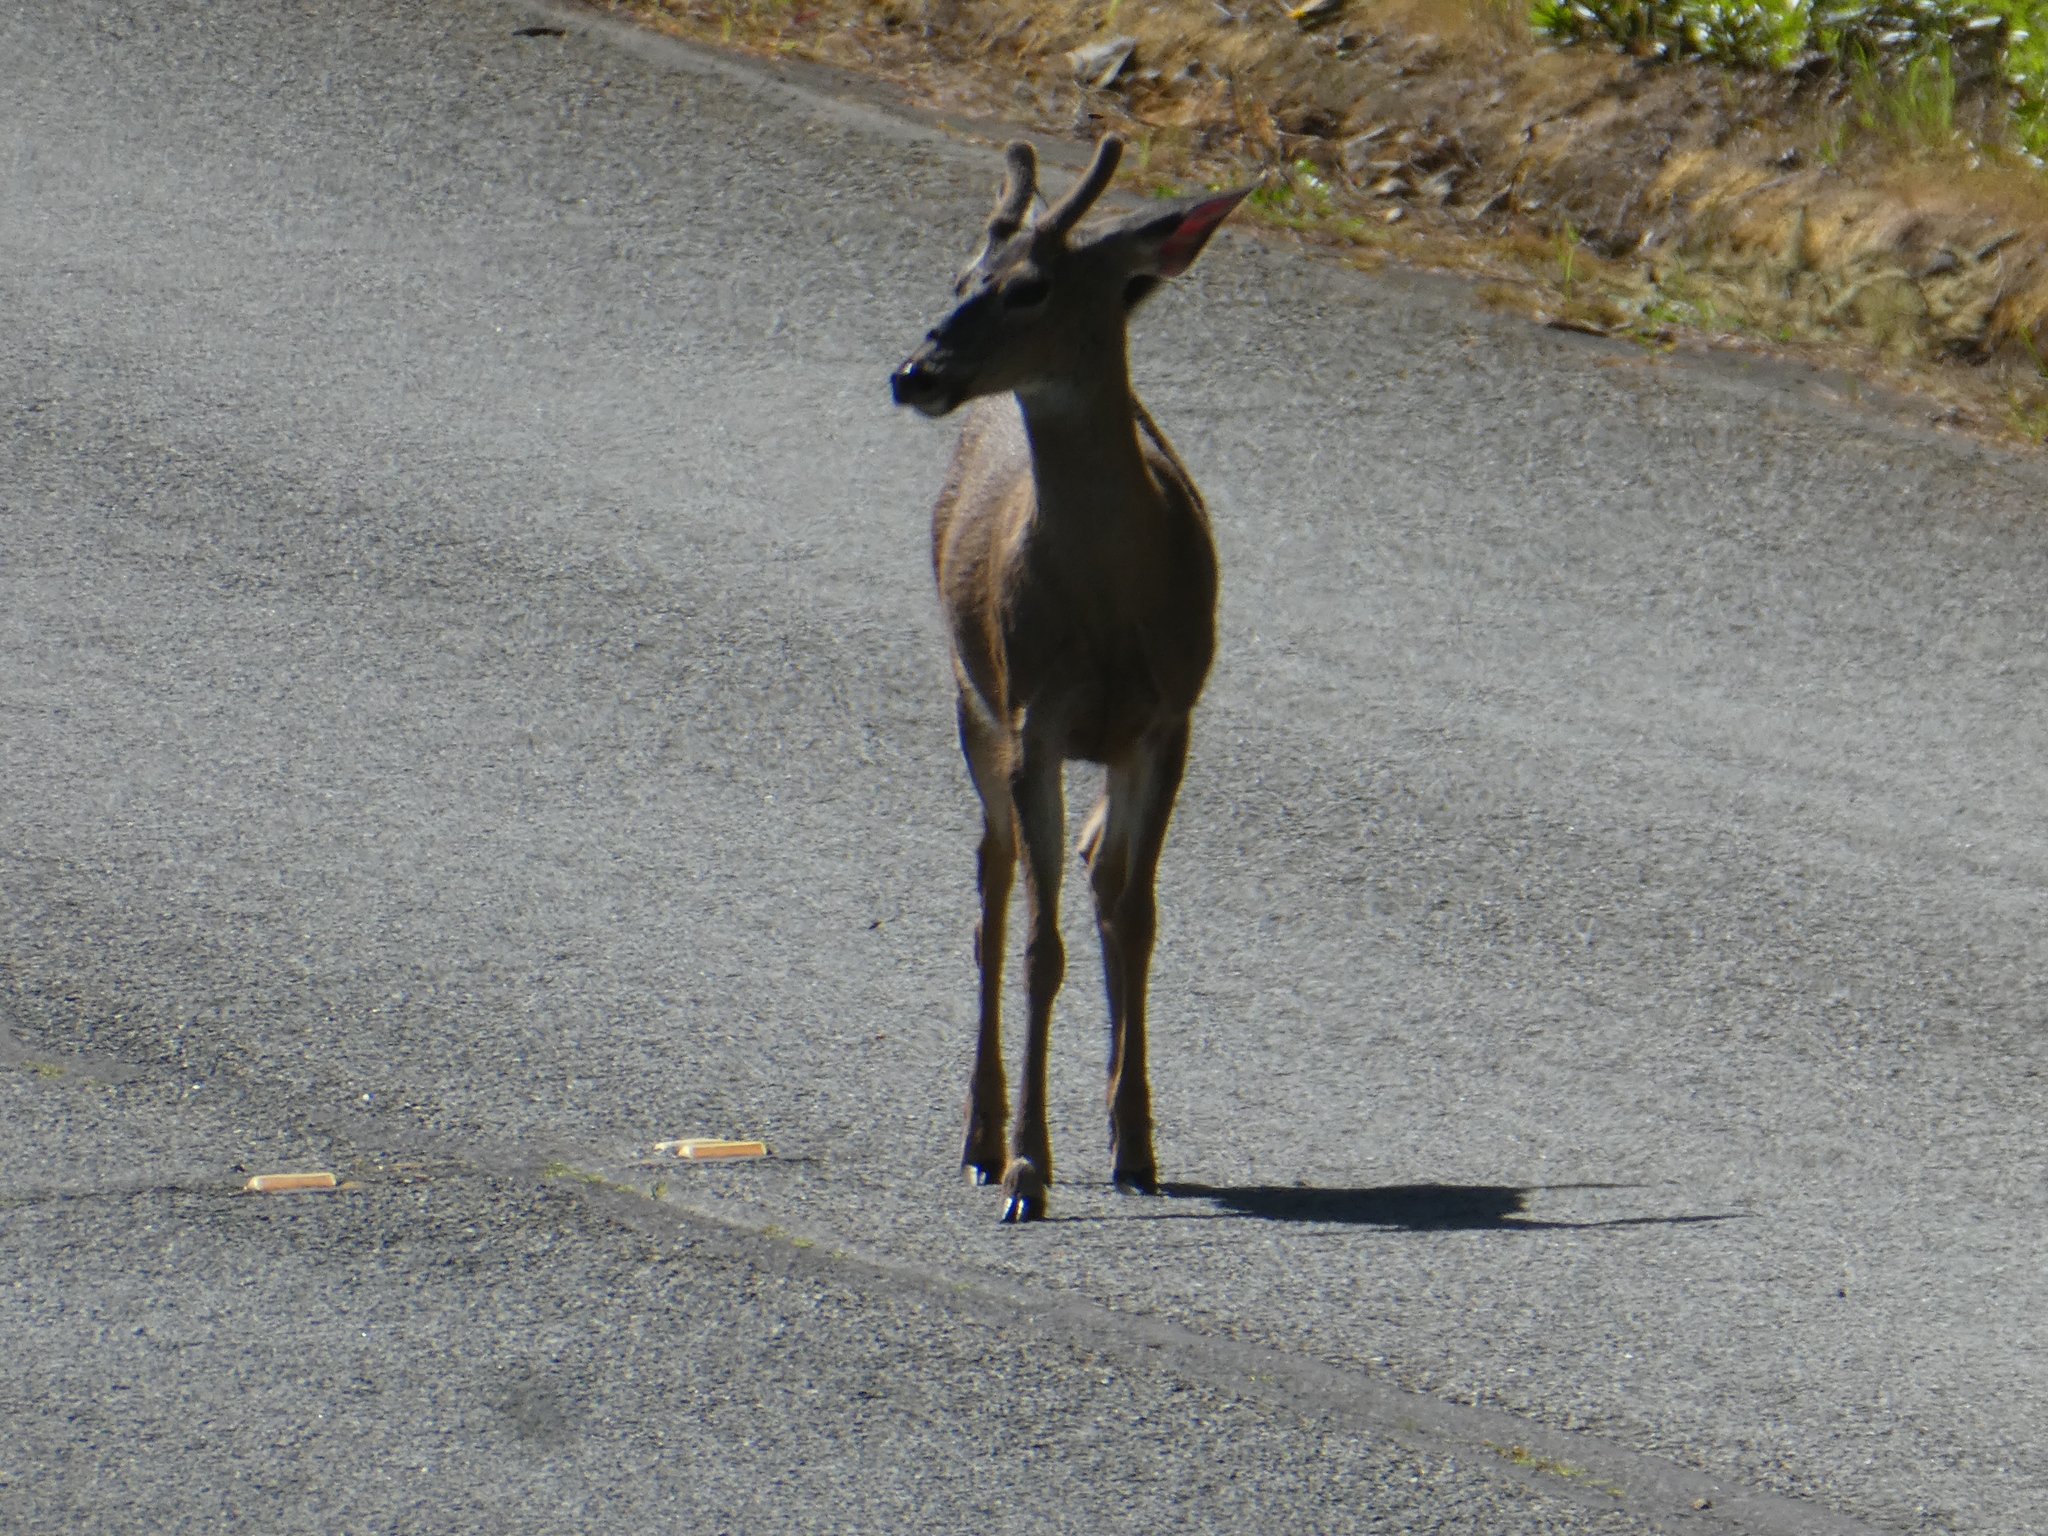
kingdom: Animalia
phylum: Chordata
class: Mammalia
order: Artiodactyla
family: Cervidae
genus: Odocoileus
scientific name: Odocoileus hemionus
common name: Mule deer
